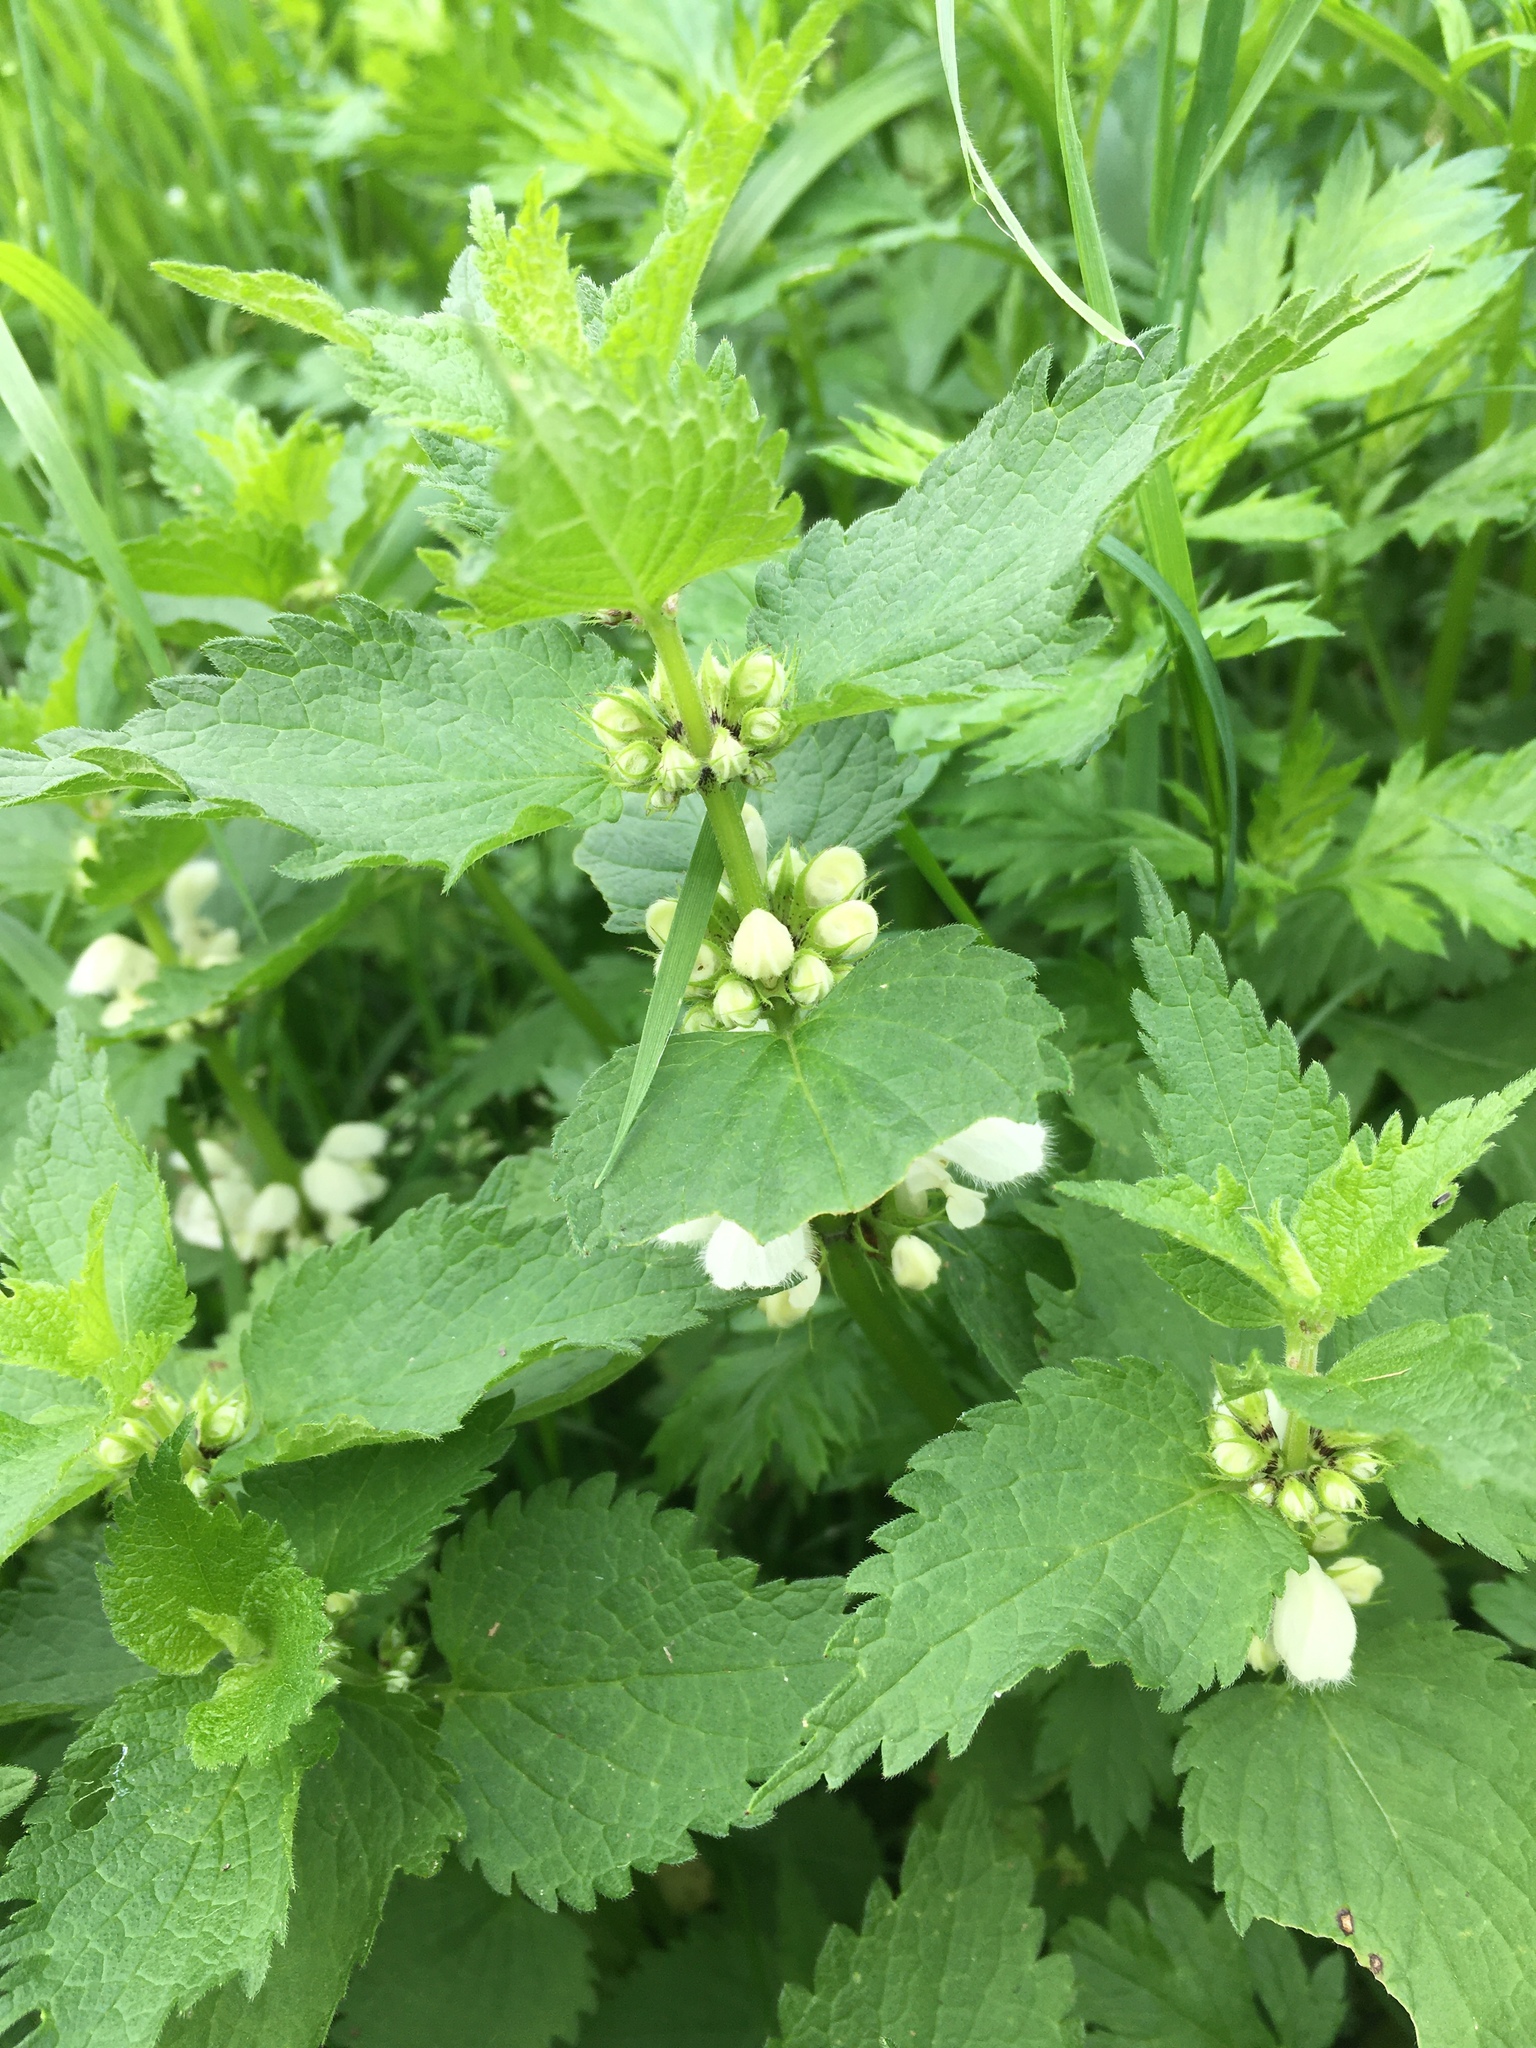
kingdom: Plantae
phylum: Tracheophyta
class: Magnoliopsida
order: Lamiales
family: Lamiaceae
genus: Lamium
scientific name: Lamium album
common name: White dead-nettle
